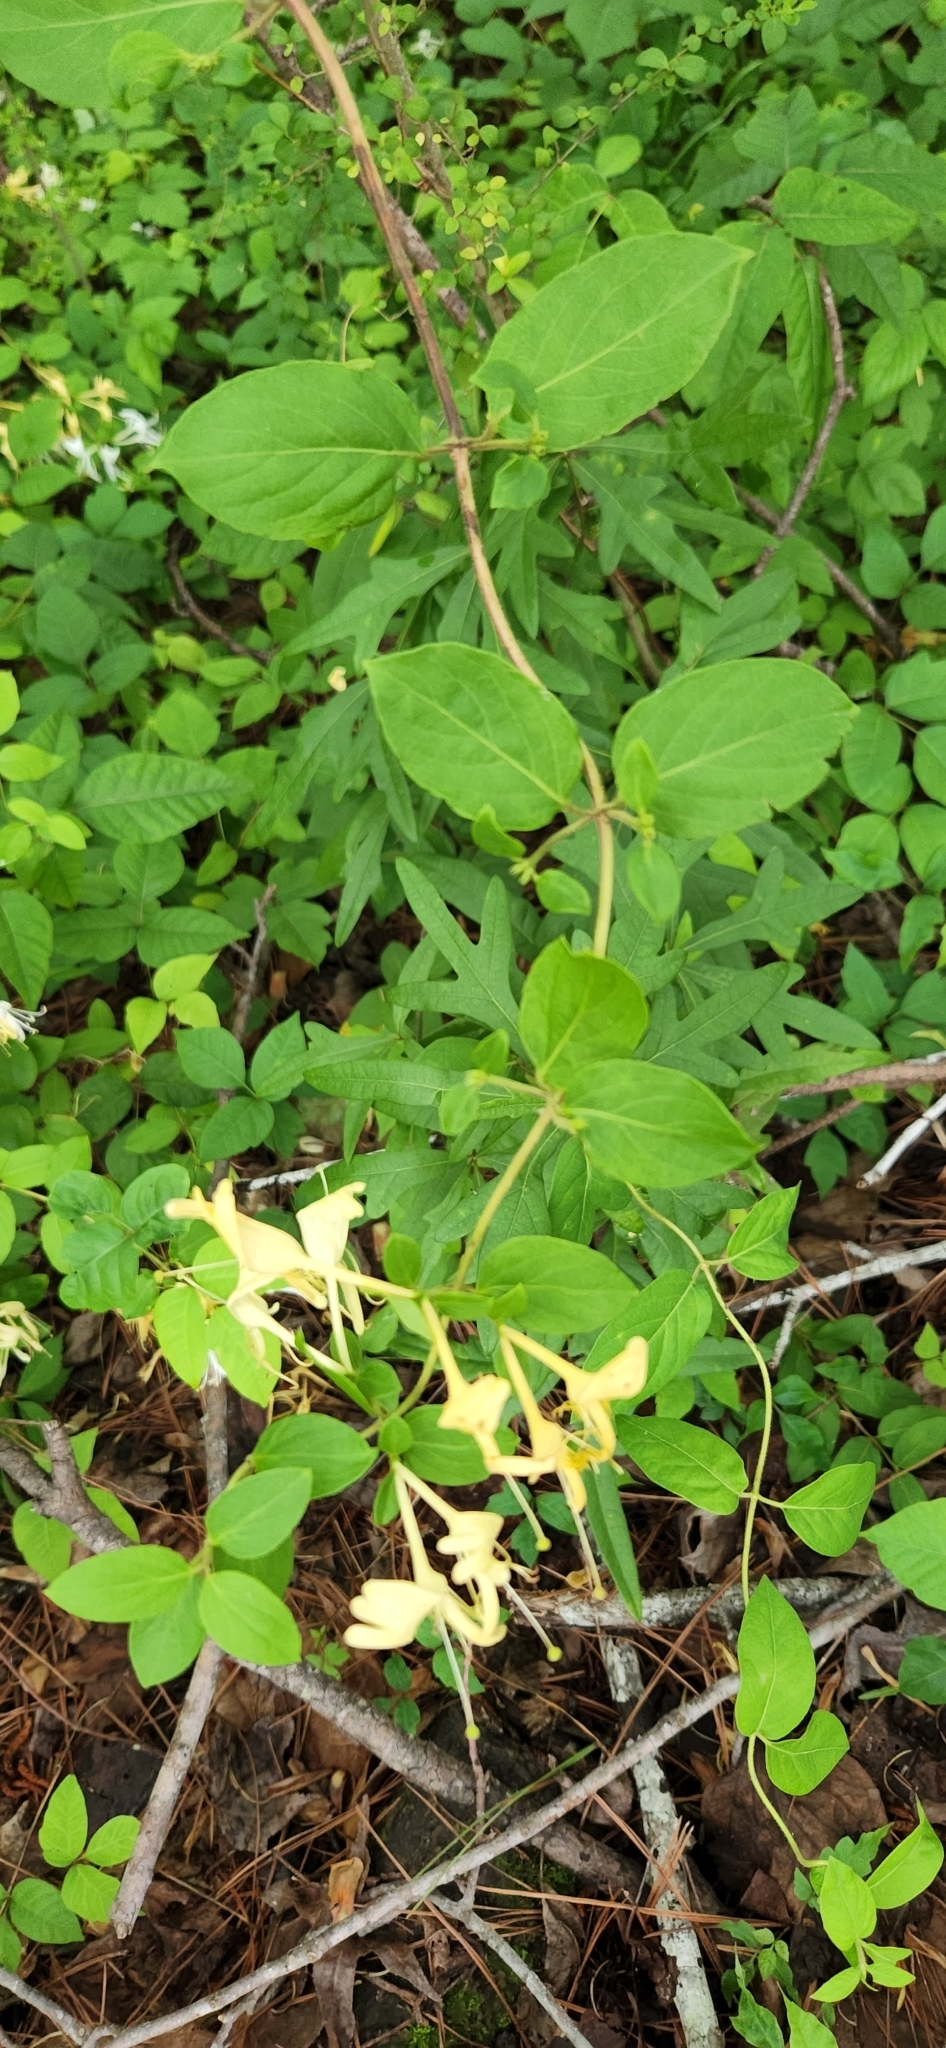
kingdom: Plantae
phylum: Tracheophyta
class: Magnoliopsida
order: Dipsacales
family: Caprifoliaceae
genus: Lonicera
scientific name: Lonicera japonica
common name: Japanese honeysuckle
